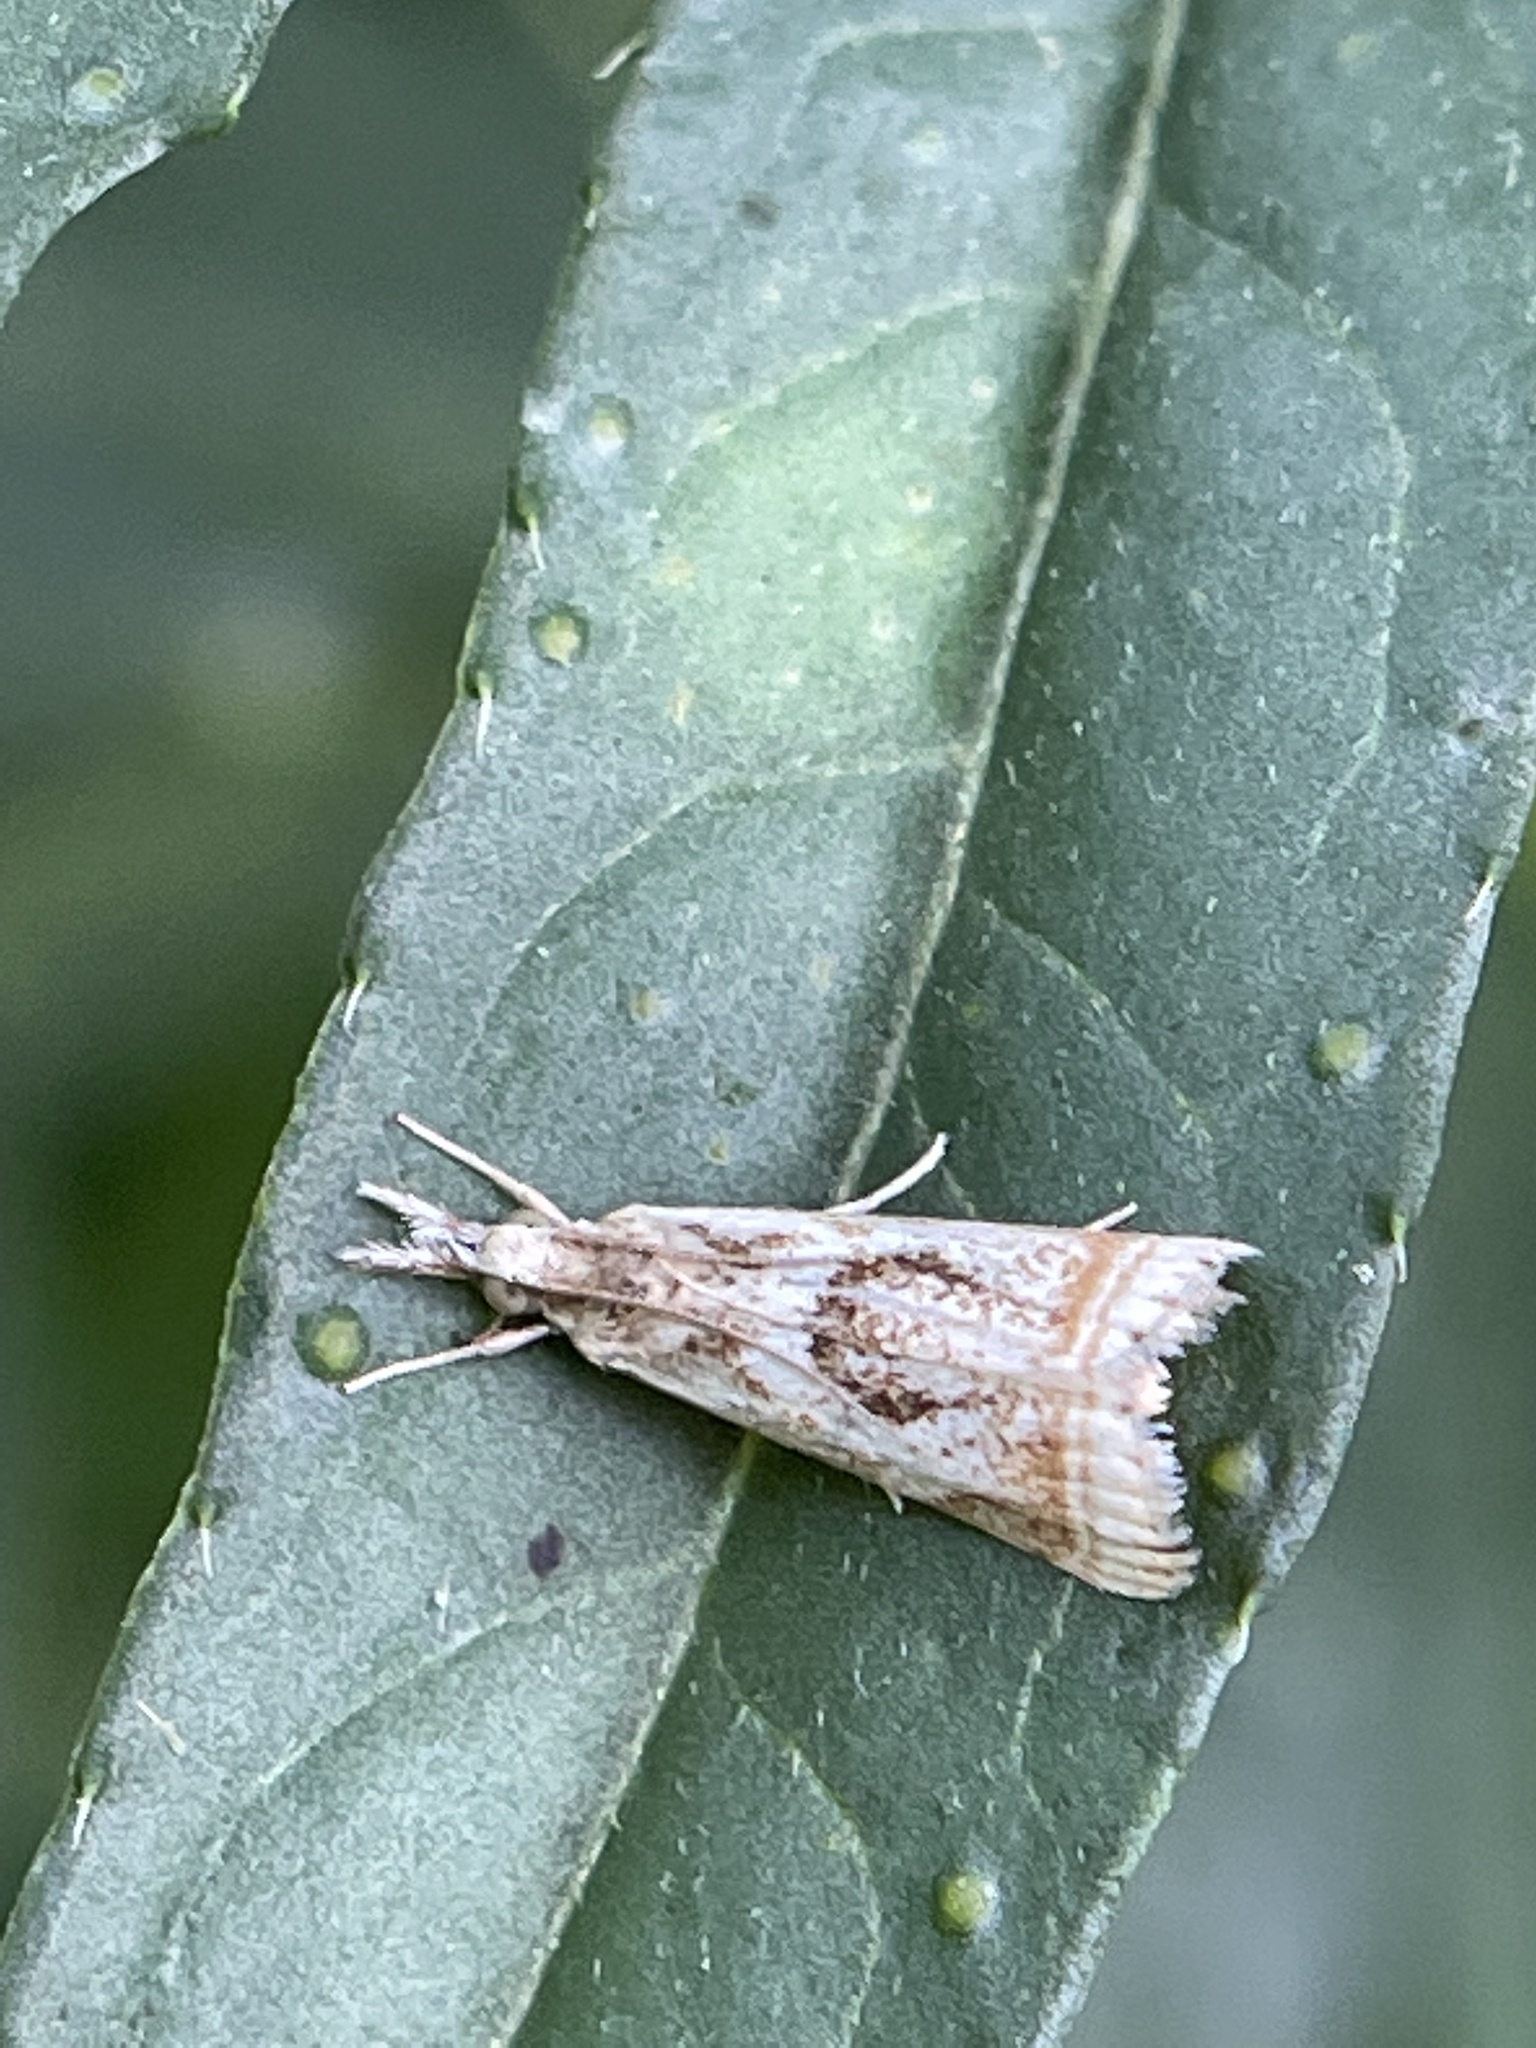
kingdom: Animalia
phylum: Arthropoda
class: Insecta
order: Lepidoptera
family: Crambidae
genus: Microcrambus
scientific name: Microcrambus elegans
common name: Elegant grass-veneer
